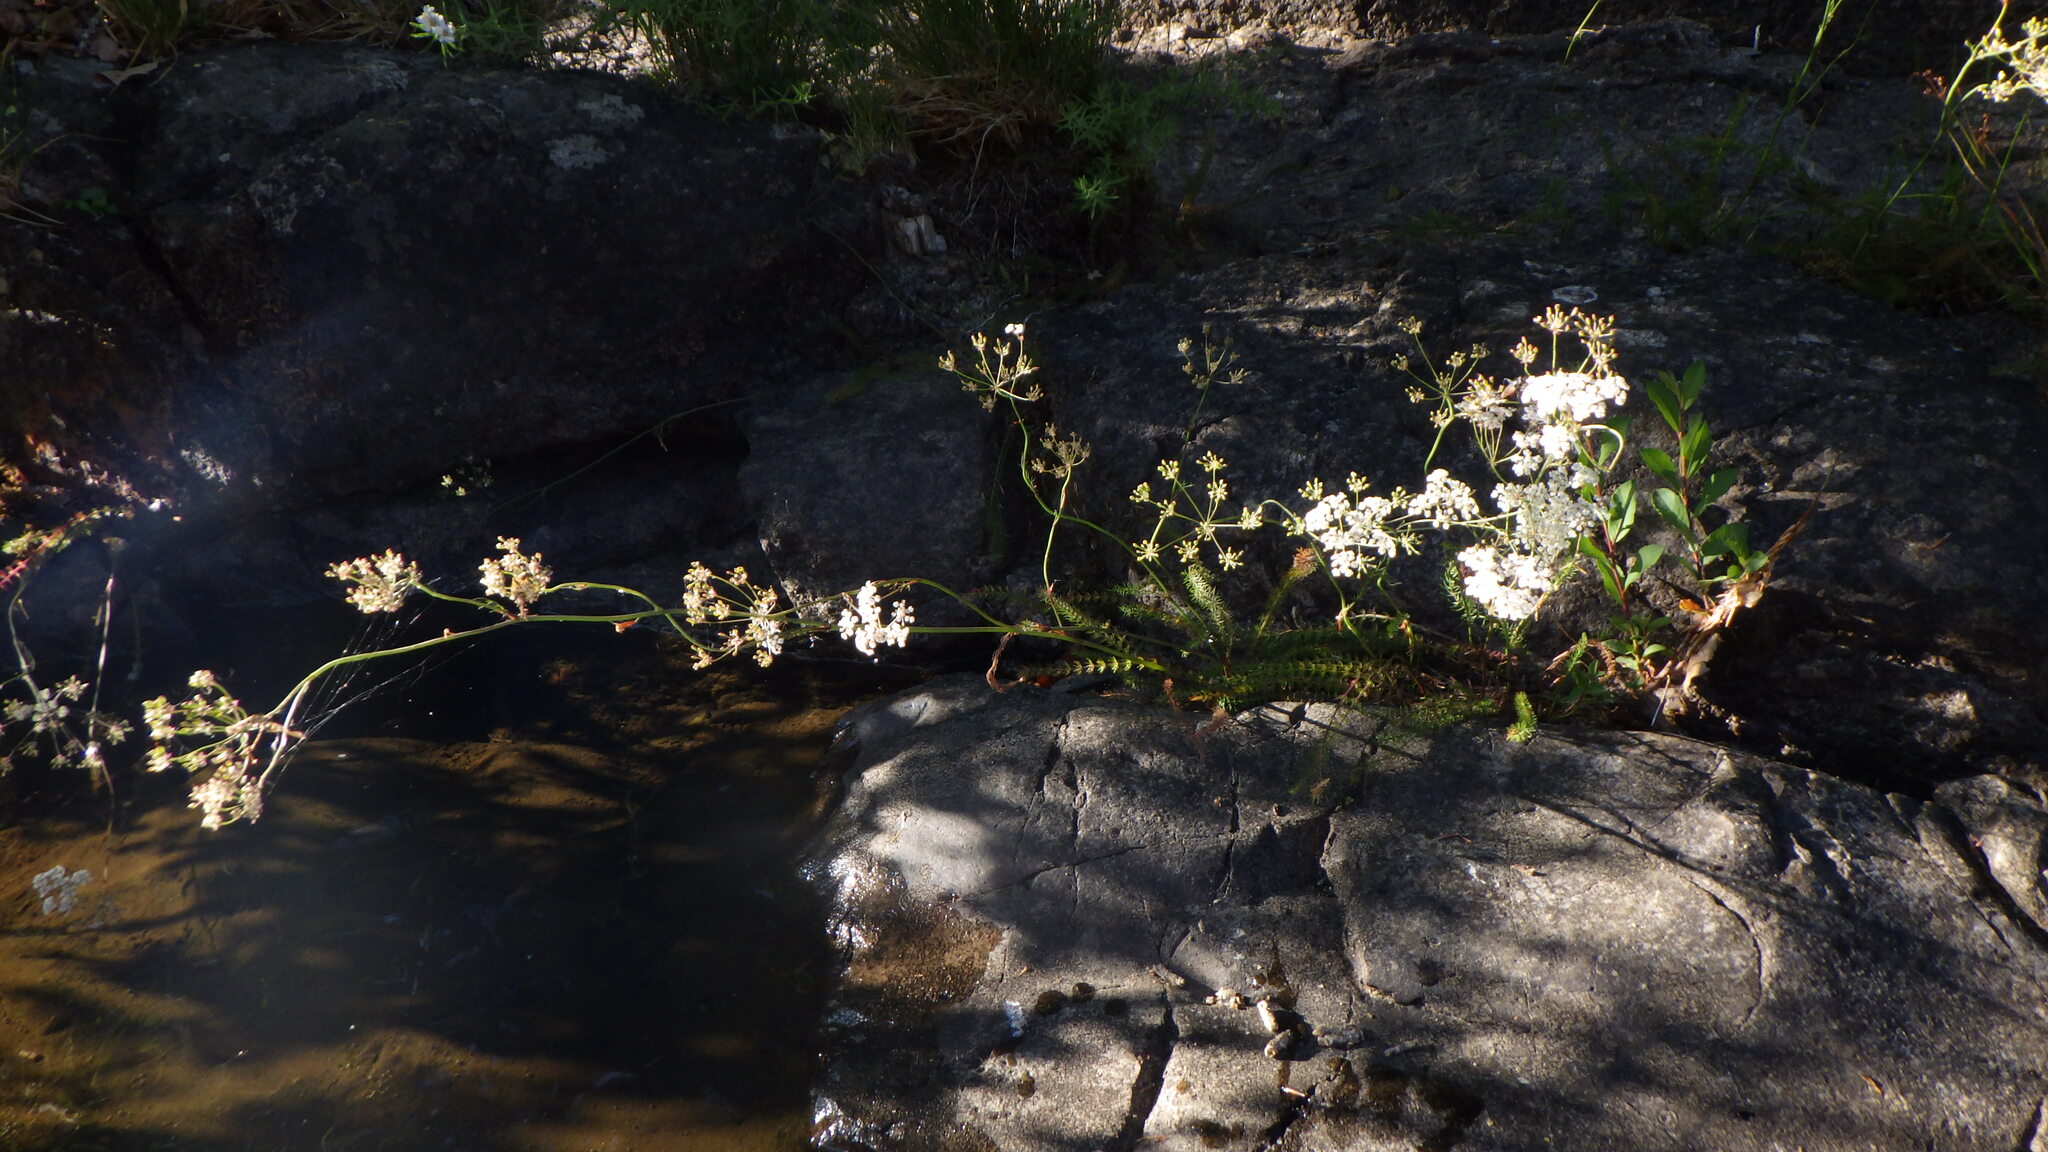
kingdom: Plantae
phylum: Tracheophyta
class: Magnoliopsida
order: Apiales
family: Apiaceae
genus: Trocdaris
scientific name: Trocdaris verticillatum
